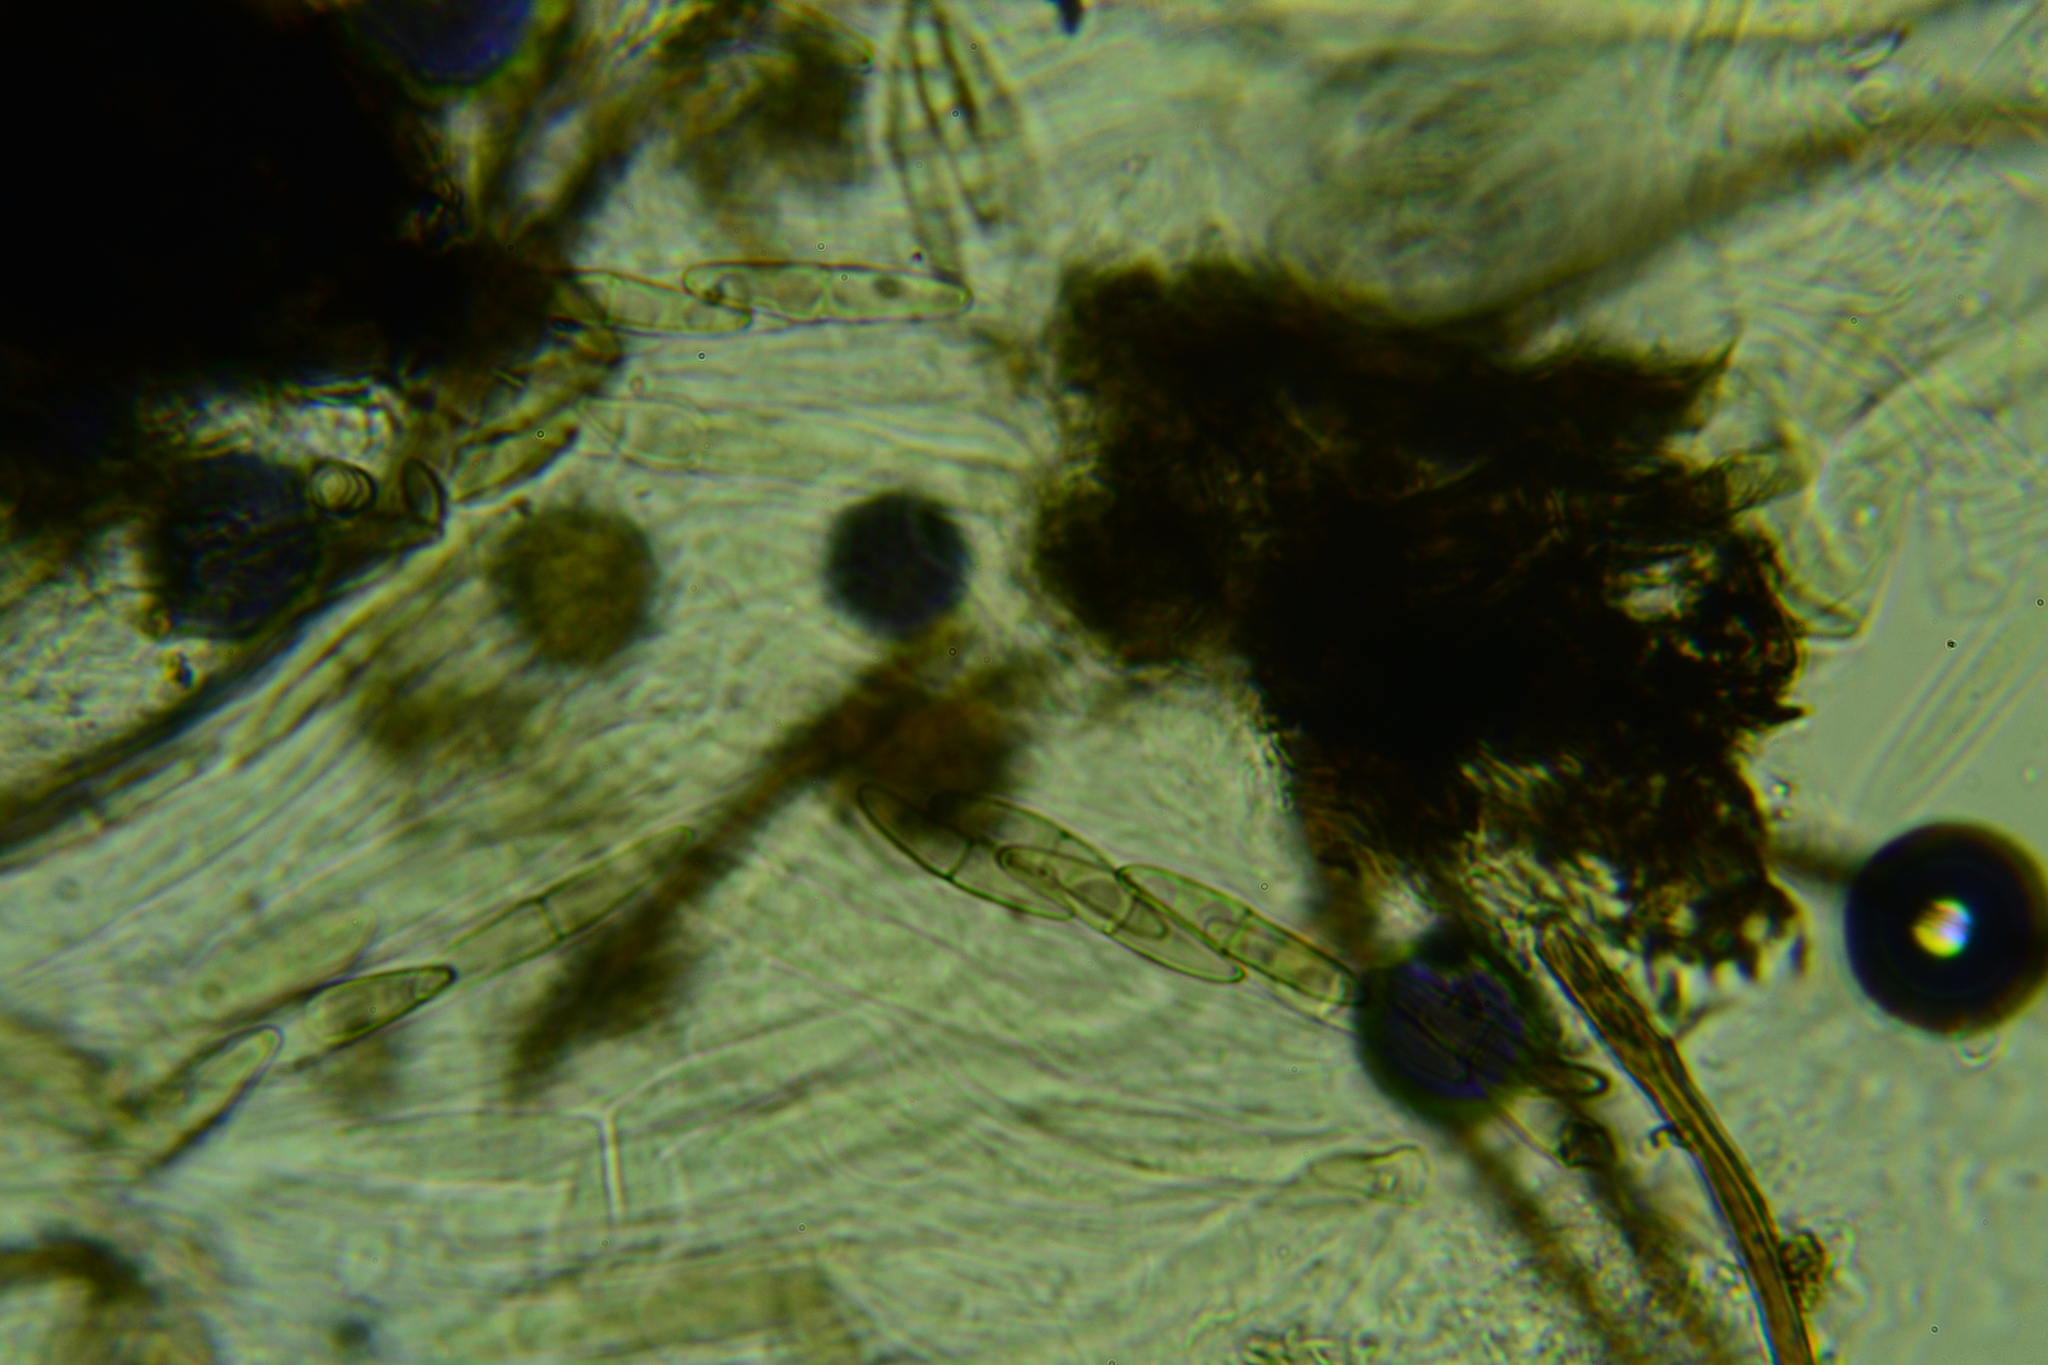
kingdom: Fungi
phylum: Ascomycota
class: Dothideomycetes
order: Pleosporales
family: Melanommataceae
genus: Byssosphaeria
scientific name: Byssosphaeria schiedermayriana
